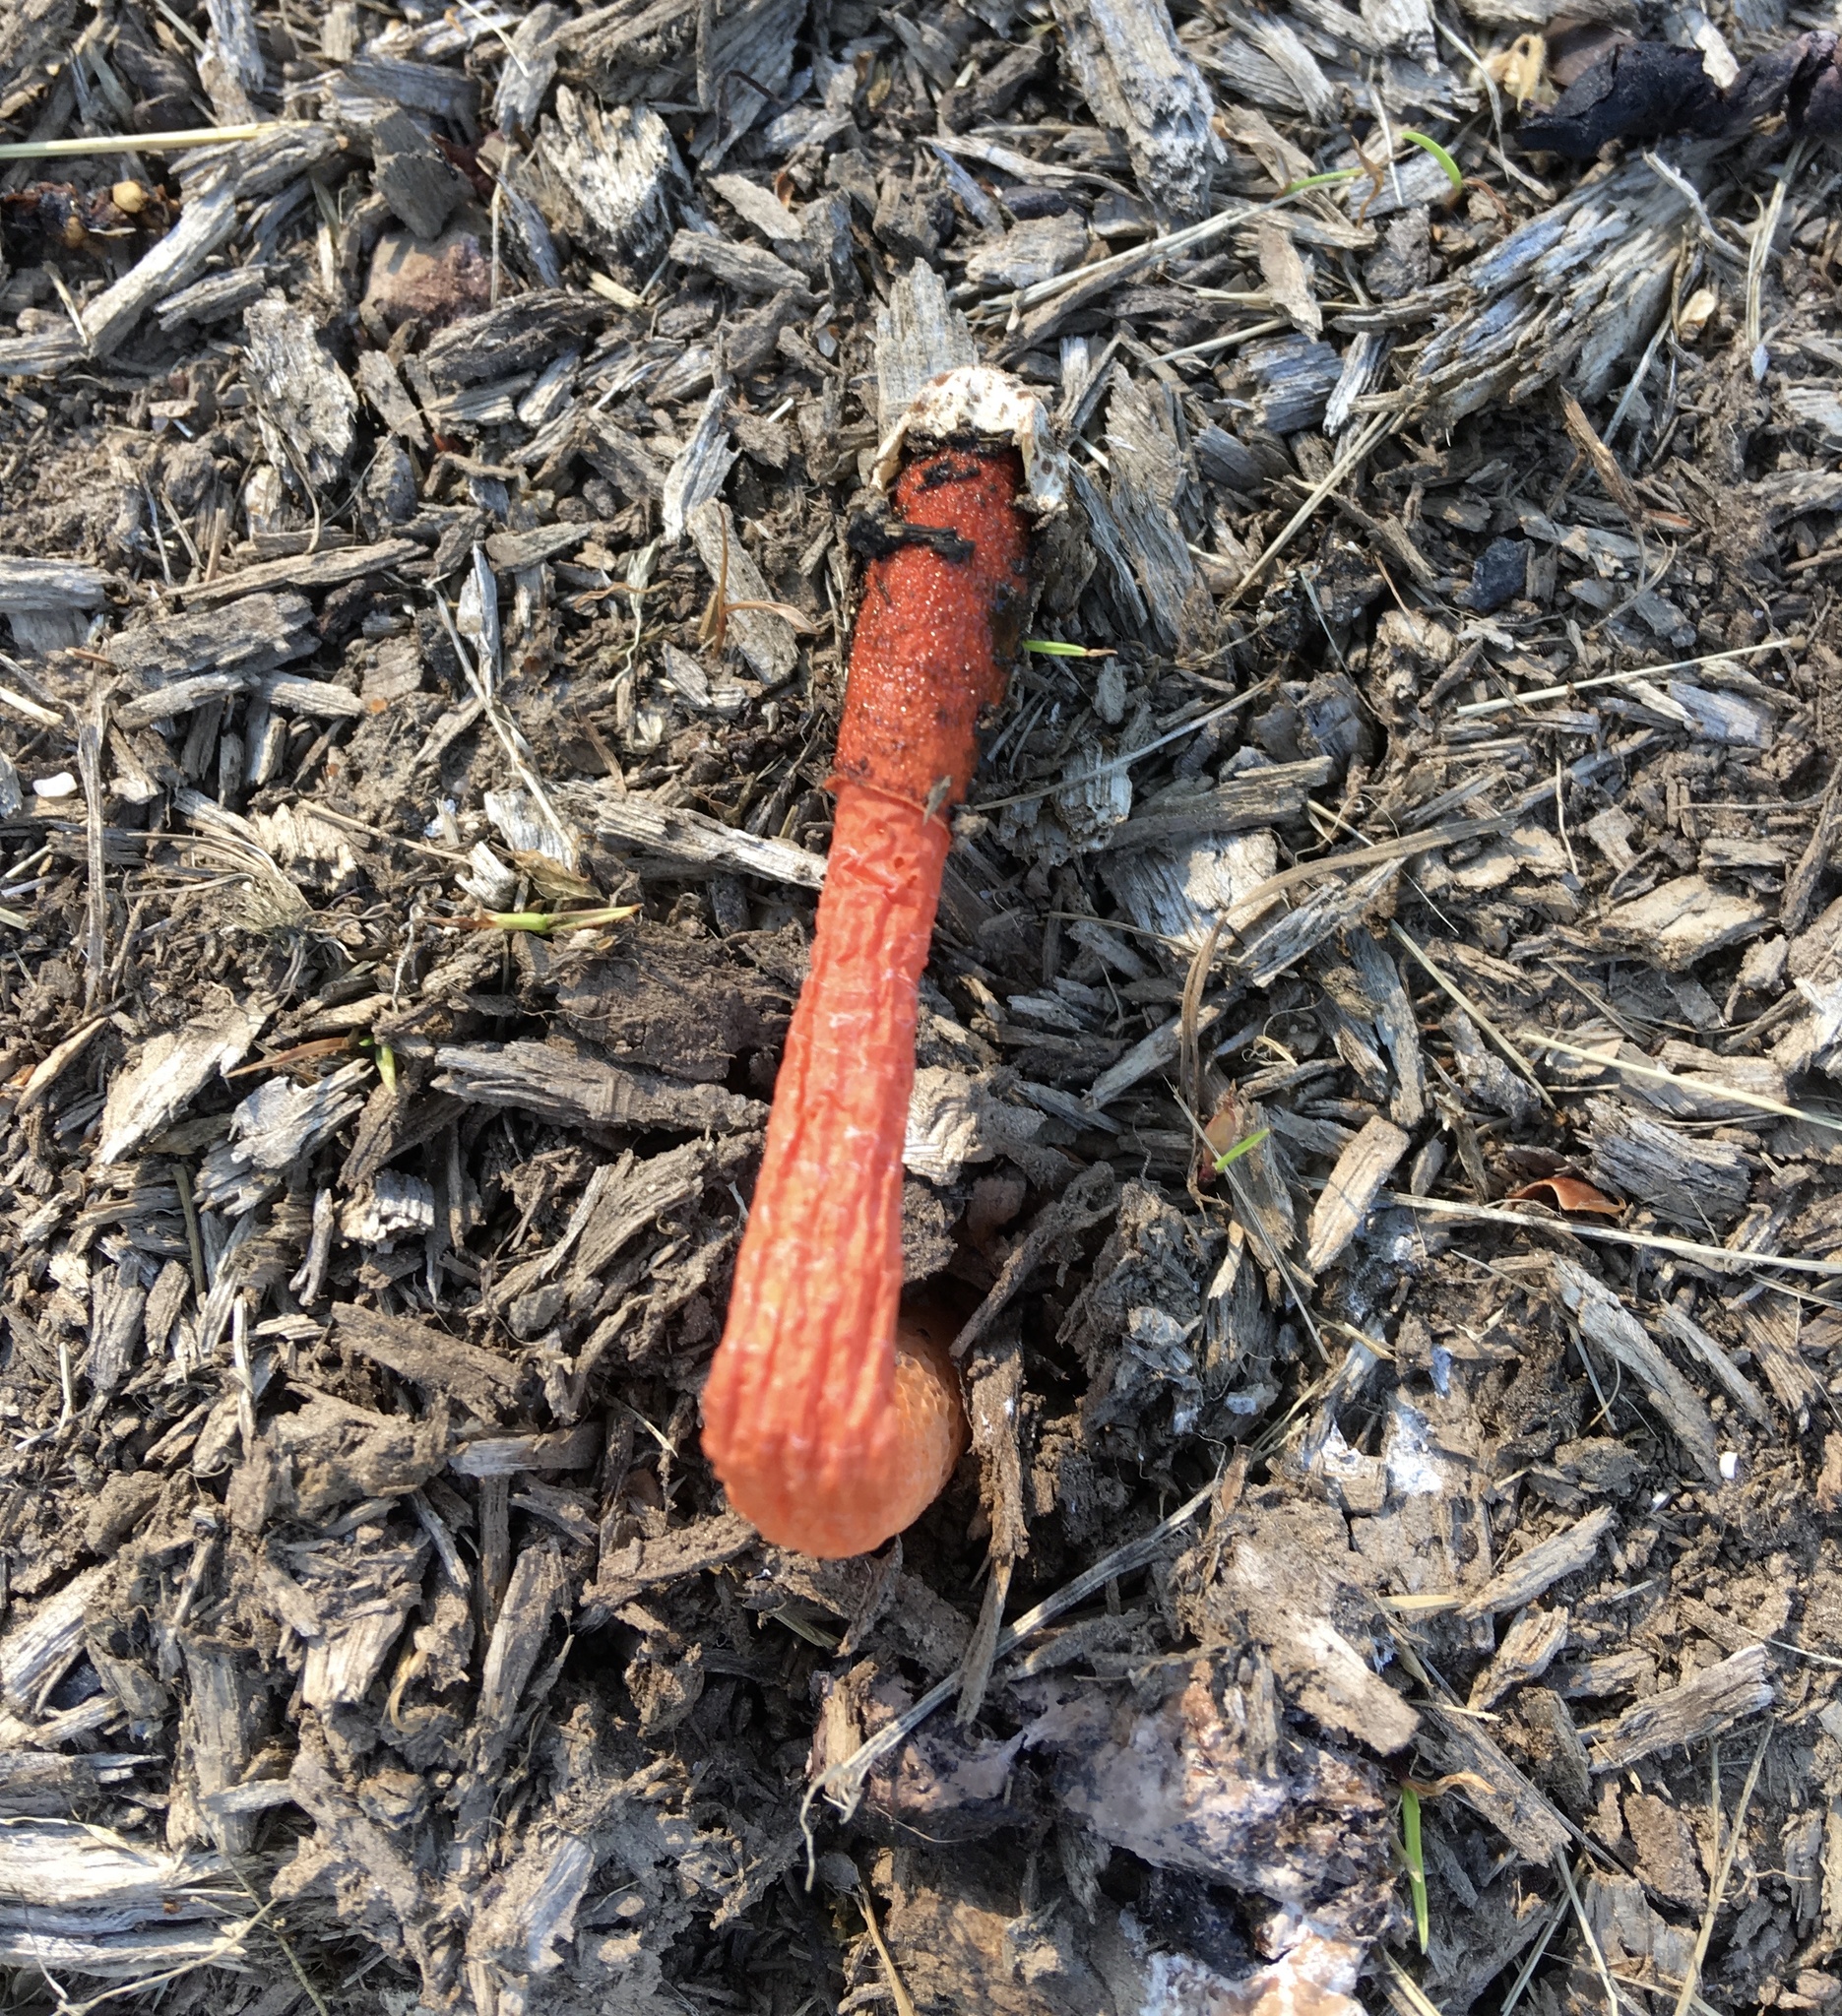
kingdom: Fungi
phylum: Basidiomycota
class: Agaricomycetes
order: Phallales
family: Phallaceae
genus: Phallus
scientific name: Phallus rugulosus
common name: Wrinkly stinkhorn
